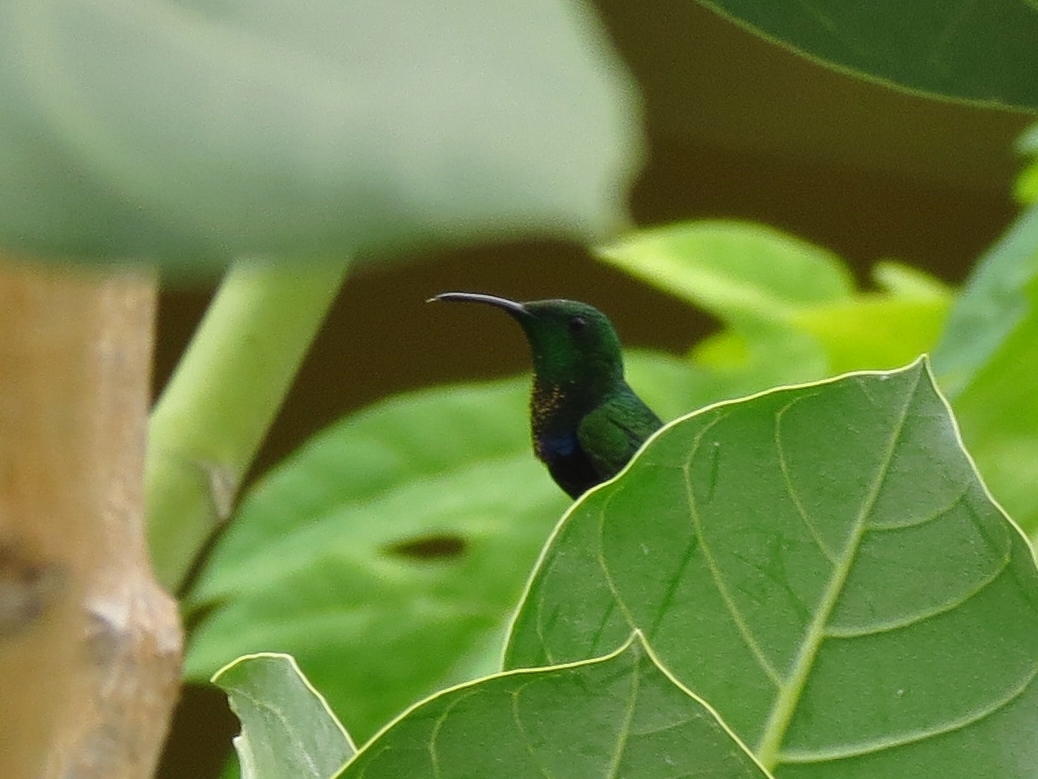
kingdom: Animalia
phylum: Chordata
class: Aves
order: Apodiformes
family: Trochilidae
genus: Eulampis
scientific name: Eulampis holosericeus
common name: Green-throated carib
